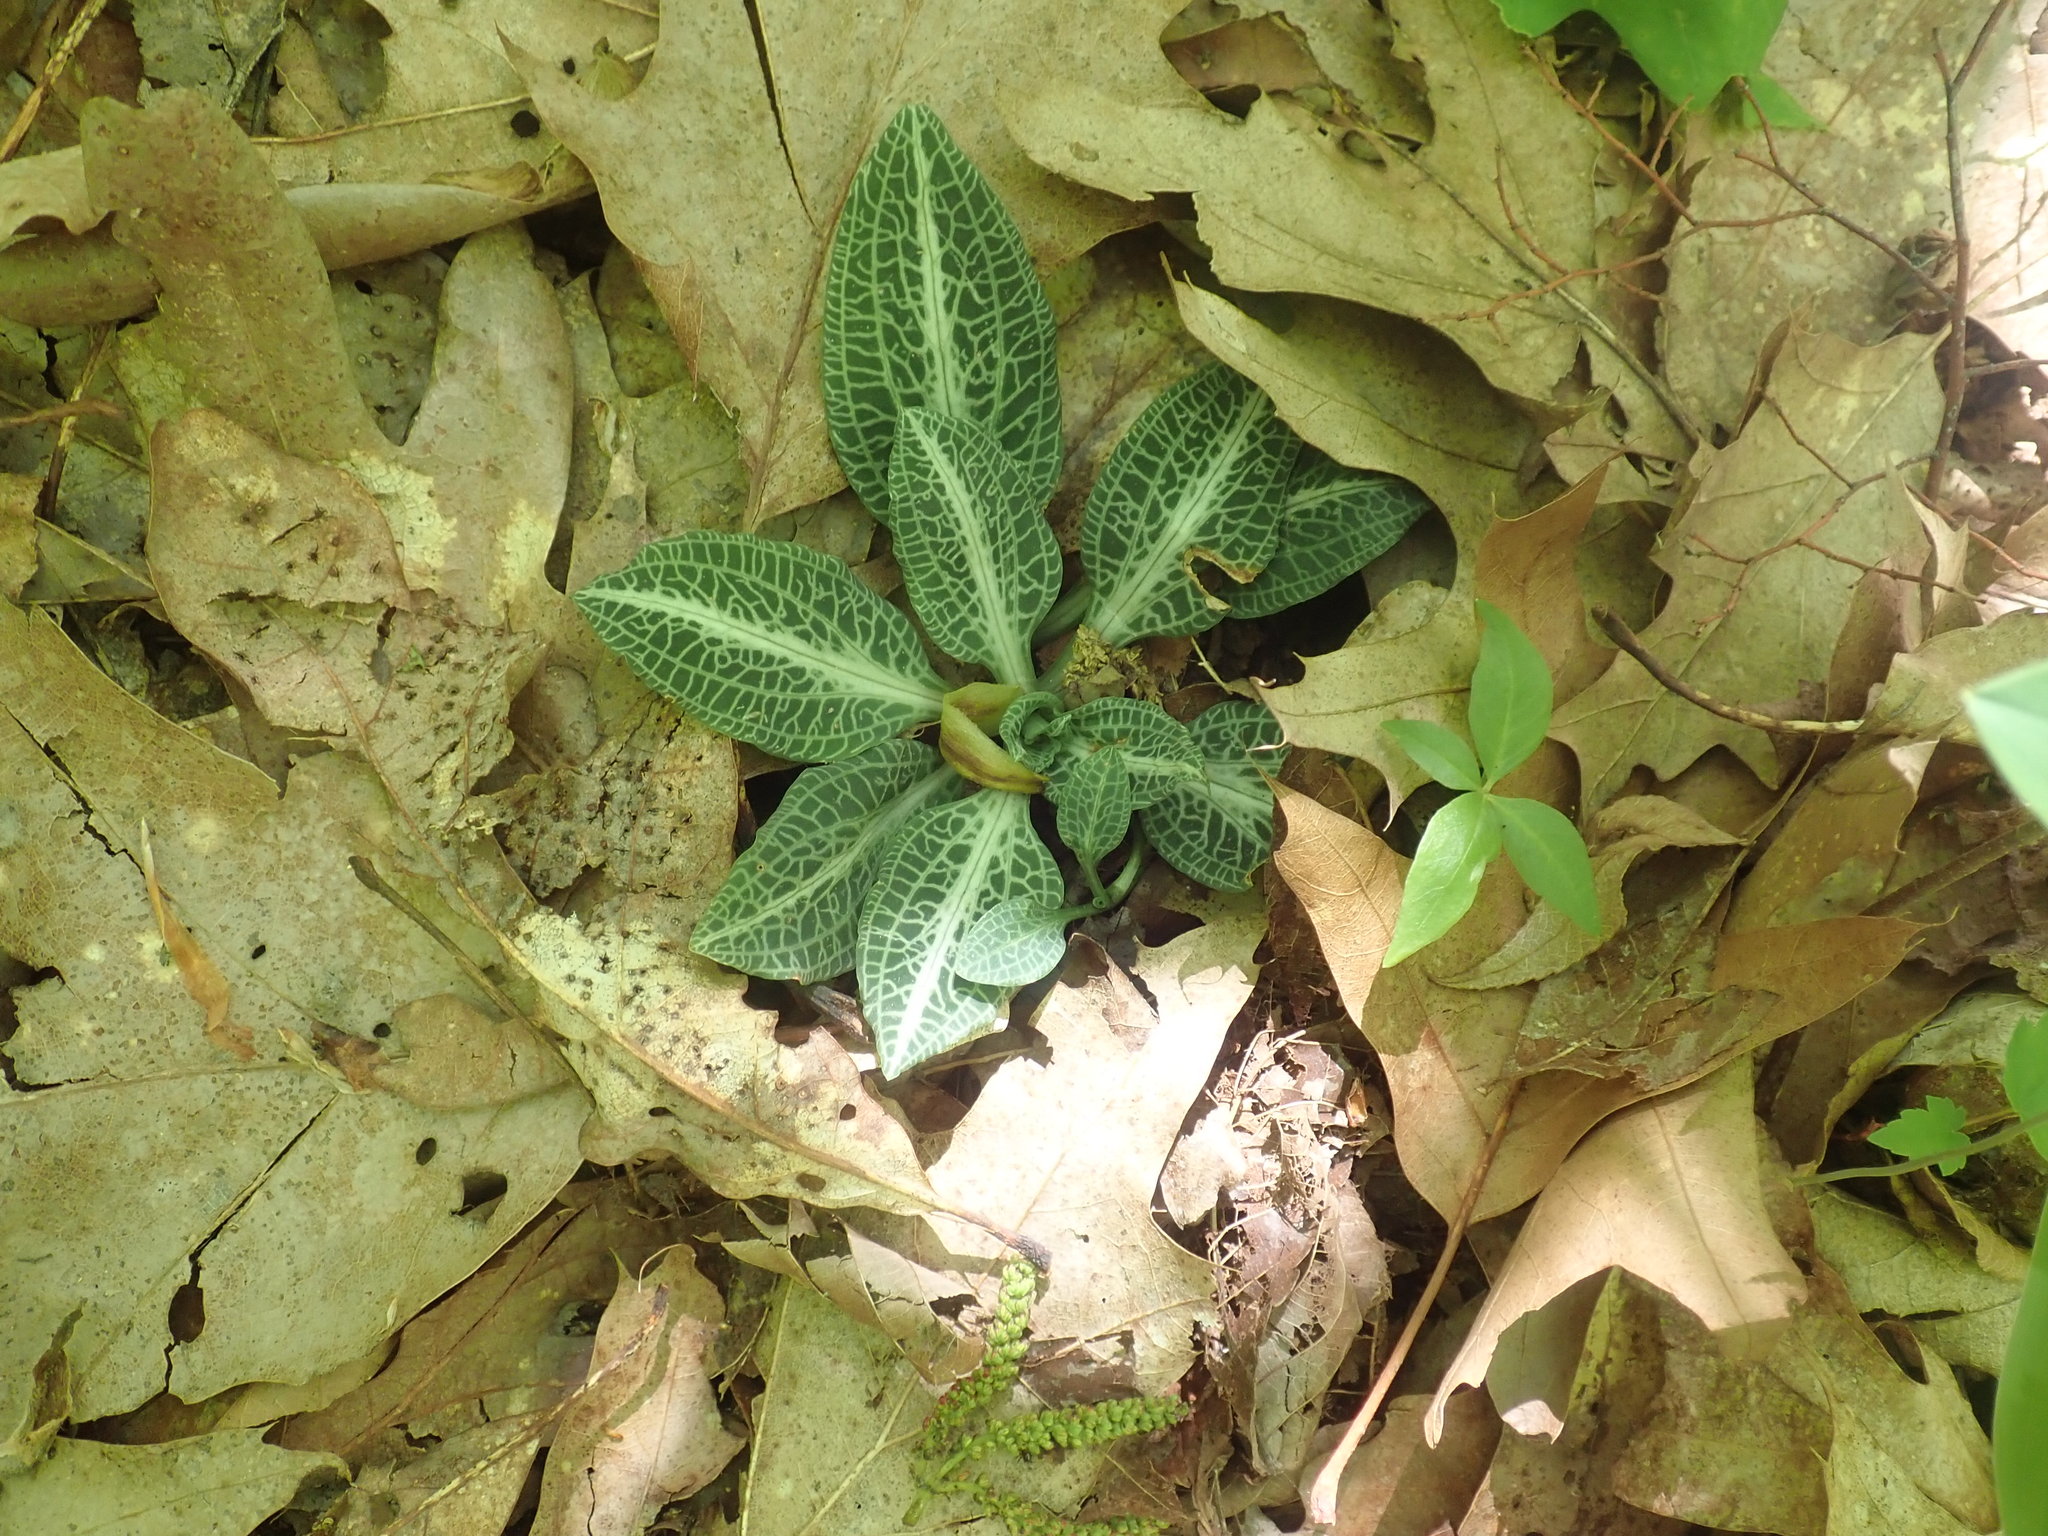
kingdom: Plantae
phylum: Tracheophyta
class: Liliopsida
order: Asparagales
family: Orchidaceae
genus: Goodyera
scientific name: Goodyera pubescens
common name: Downy rattlesnake-plantain
